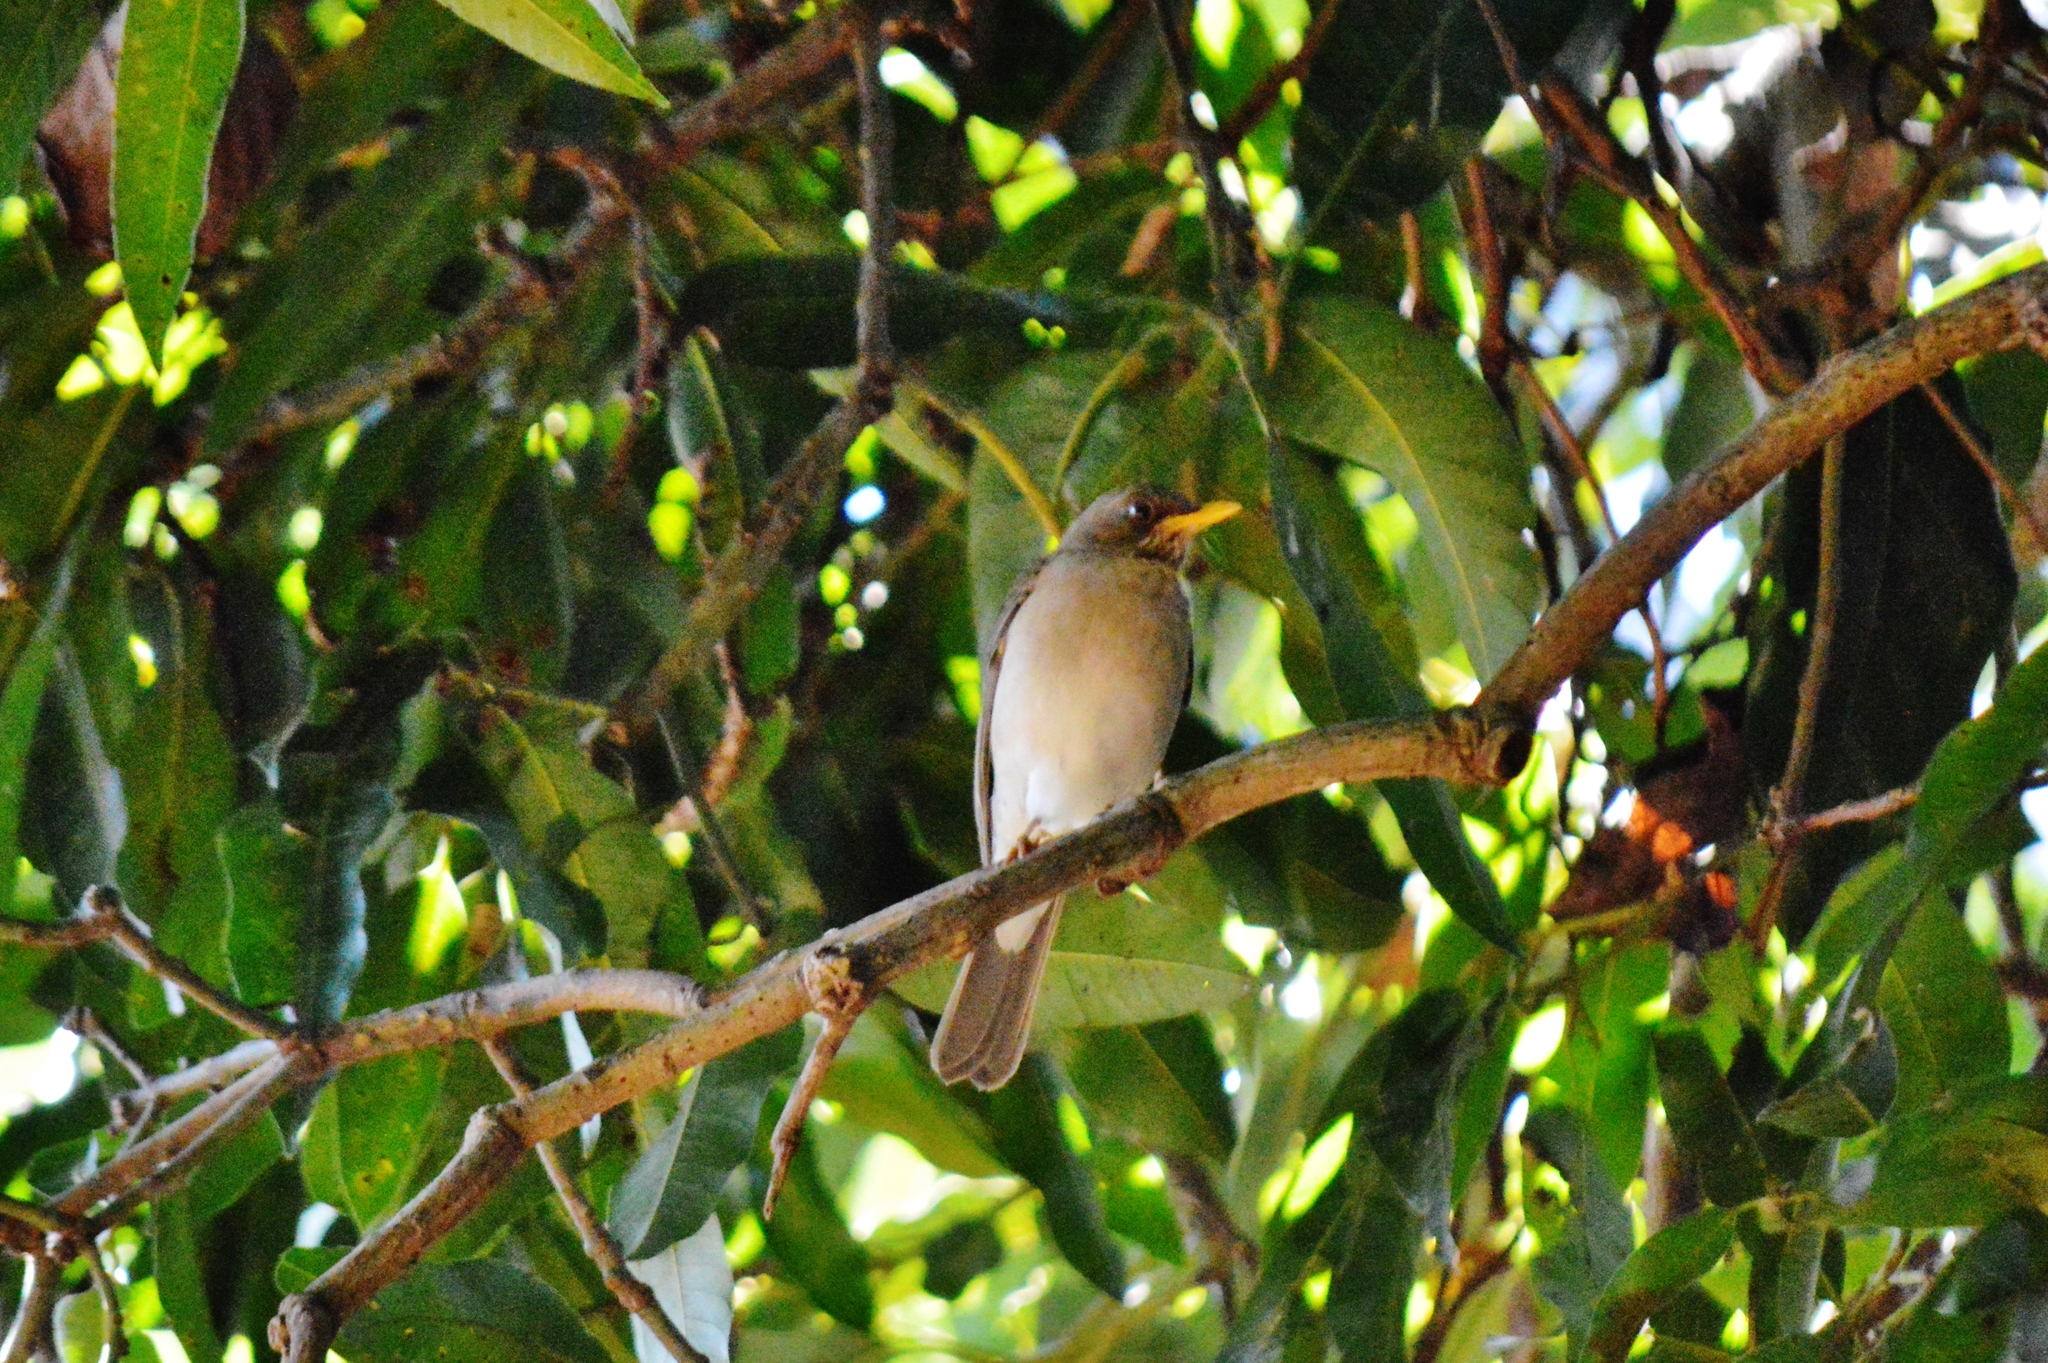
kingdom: Animalia
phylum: Chordata
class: Aves
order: Passeriformes
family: Turdidae
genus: Turdus
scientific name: Turdus amaurochalinus
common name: Creamy-bellied thrush
